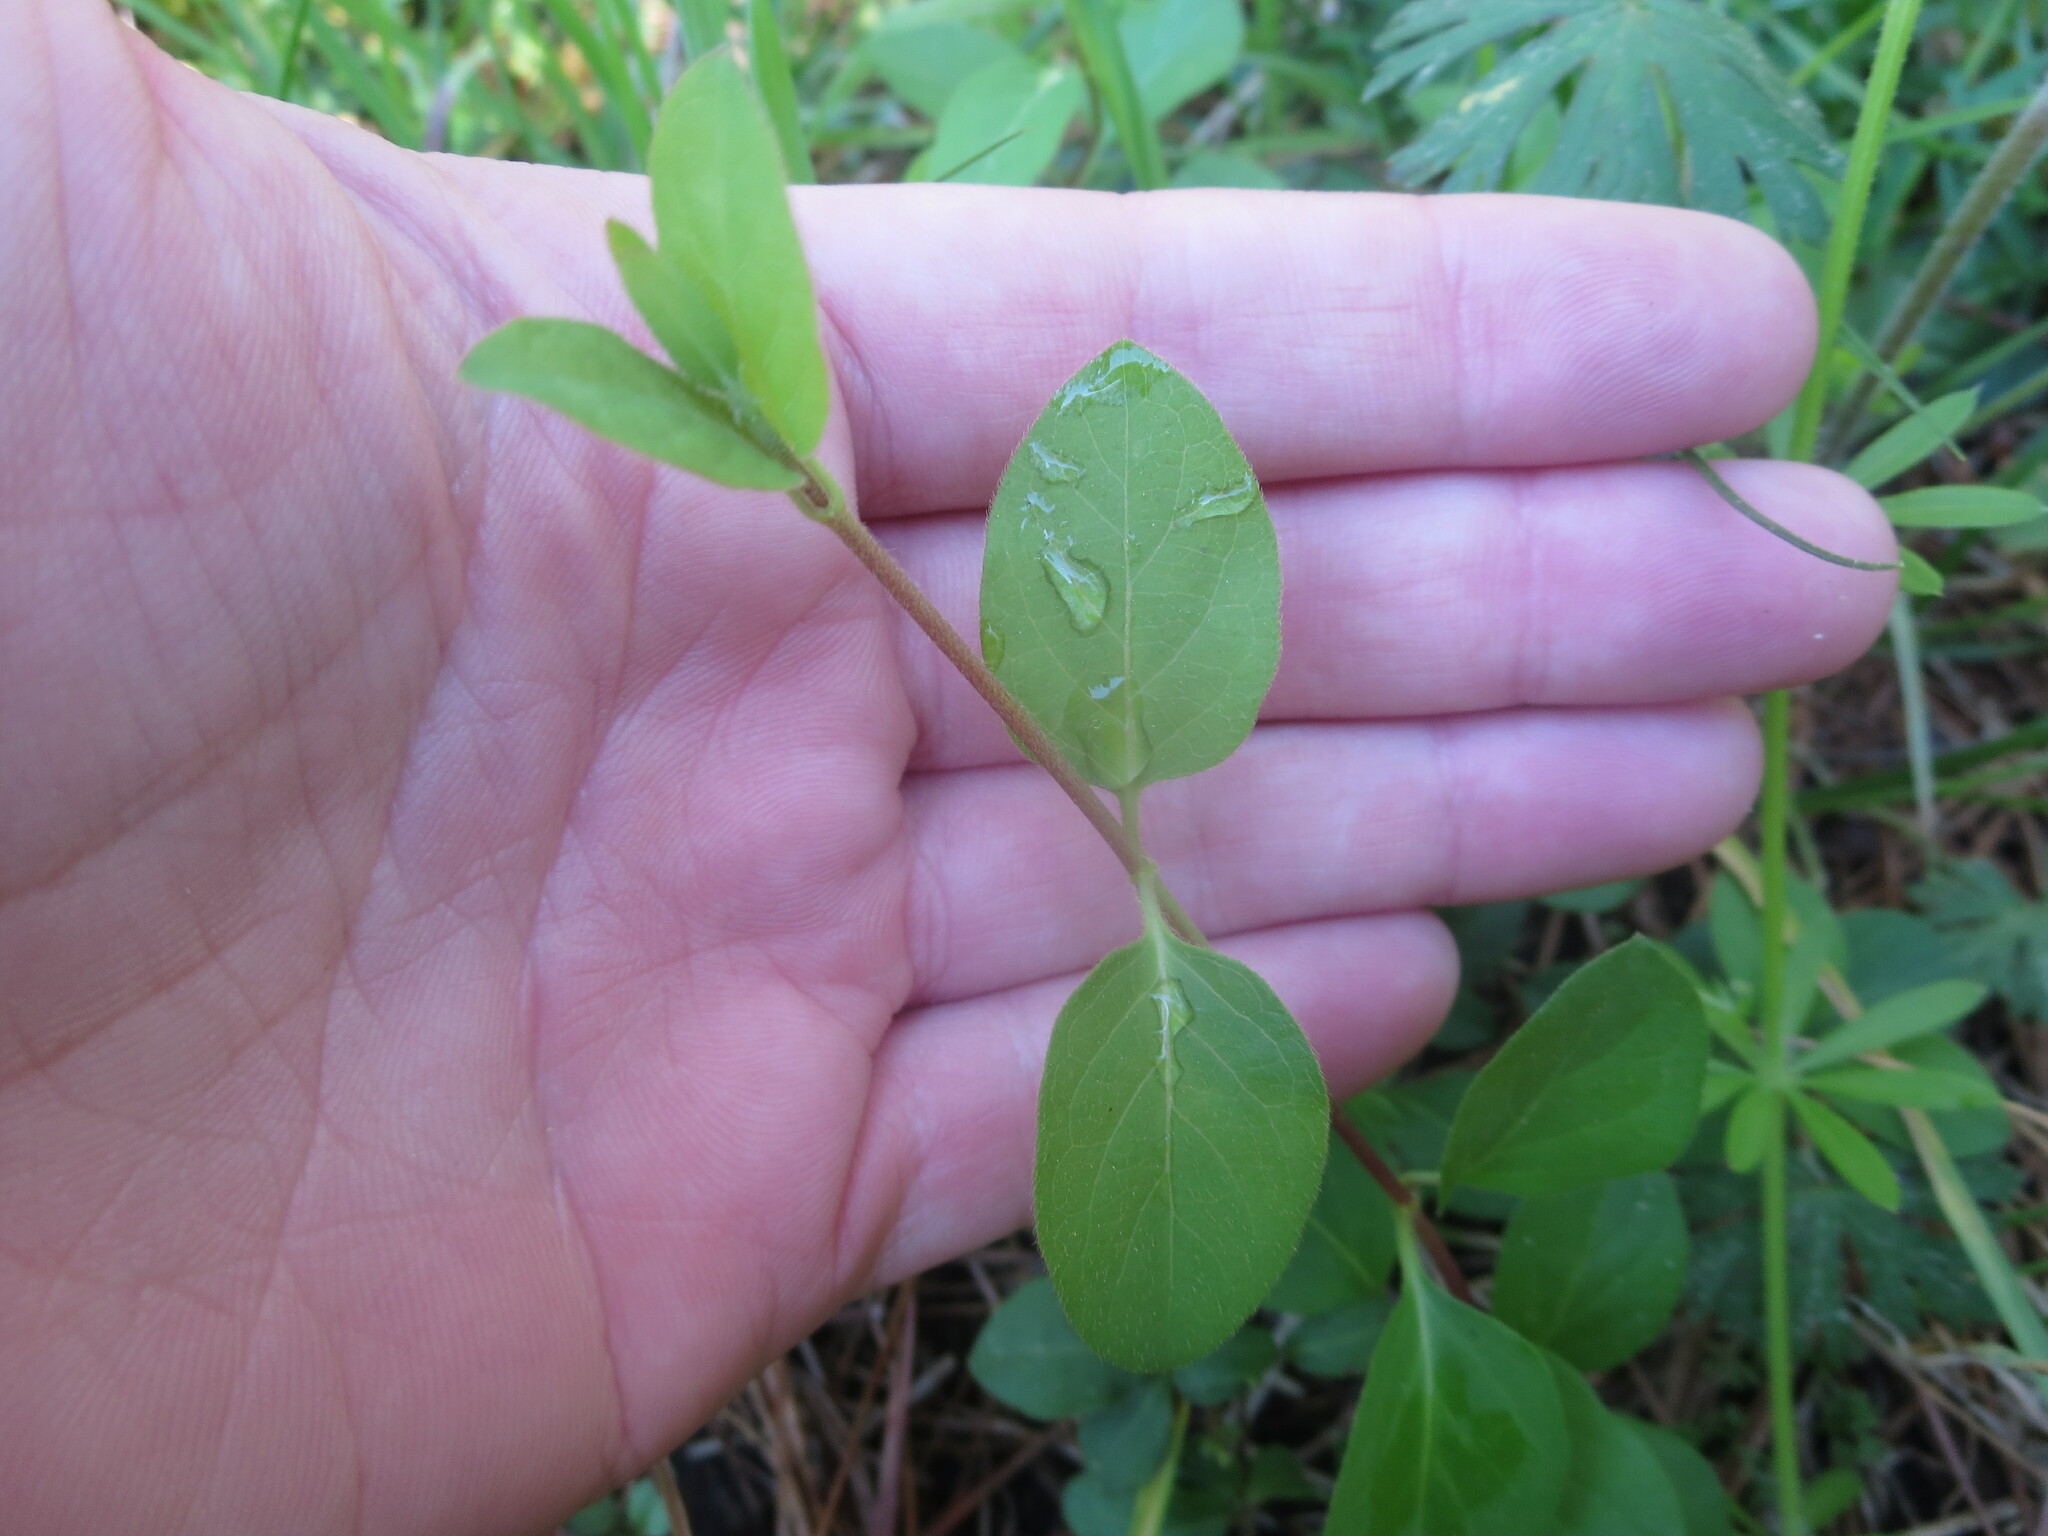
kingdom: Plantae
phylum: Tracheophyta
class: Magnoliopsida
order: Dipsacales
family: Caprifoliaceae
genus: Lonicera
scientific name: Lonicera japonica
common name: Japanese honeysuckle
